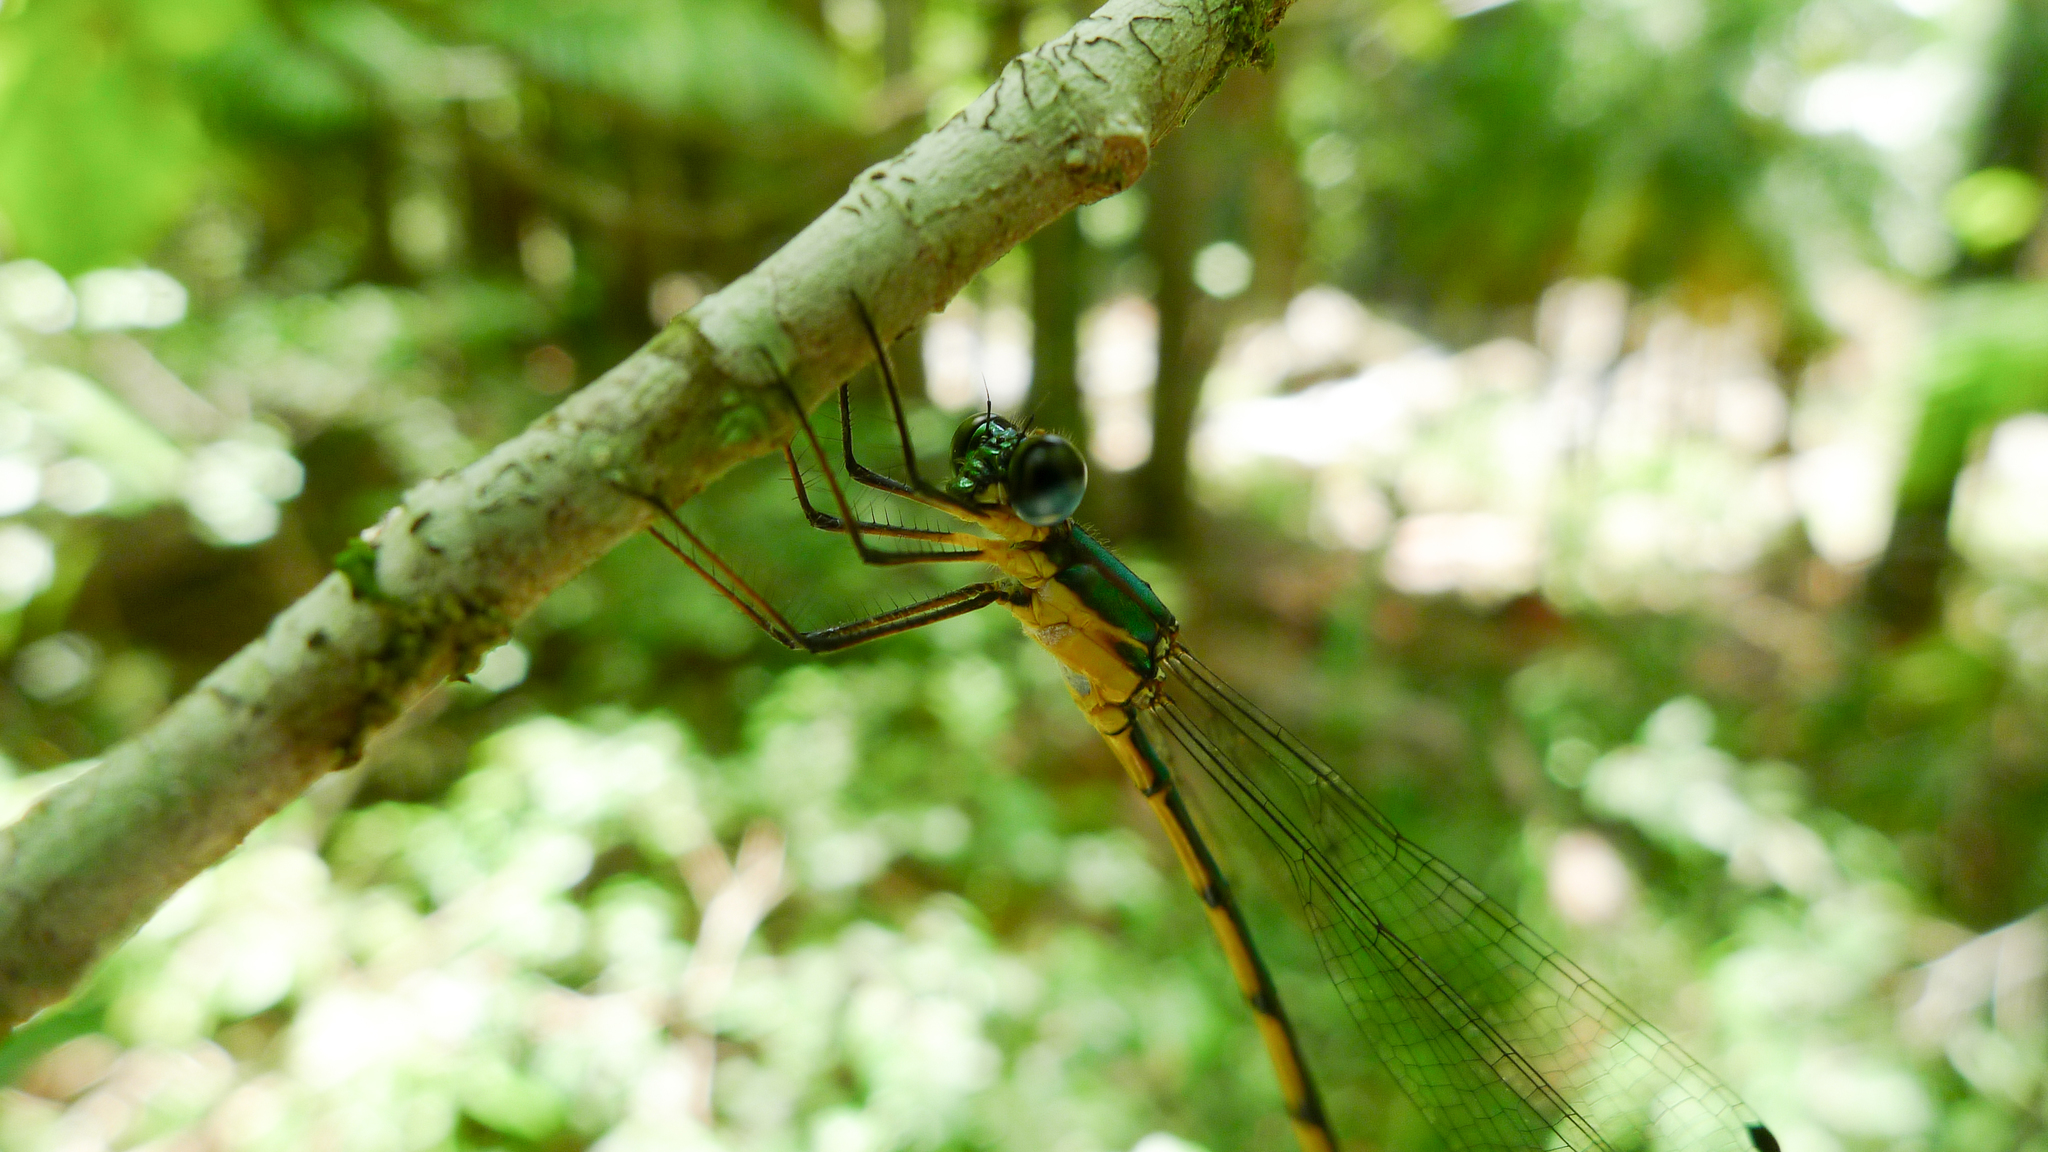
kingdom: Animalia
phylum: Arthropoda
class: Insecta
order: Odonata
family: Synlestidae
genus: Synlestes
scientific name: Synlestes selysi
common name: Forest needle
